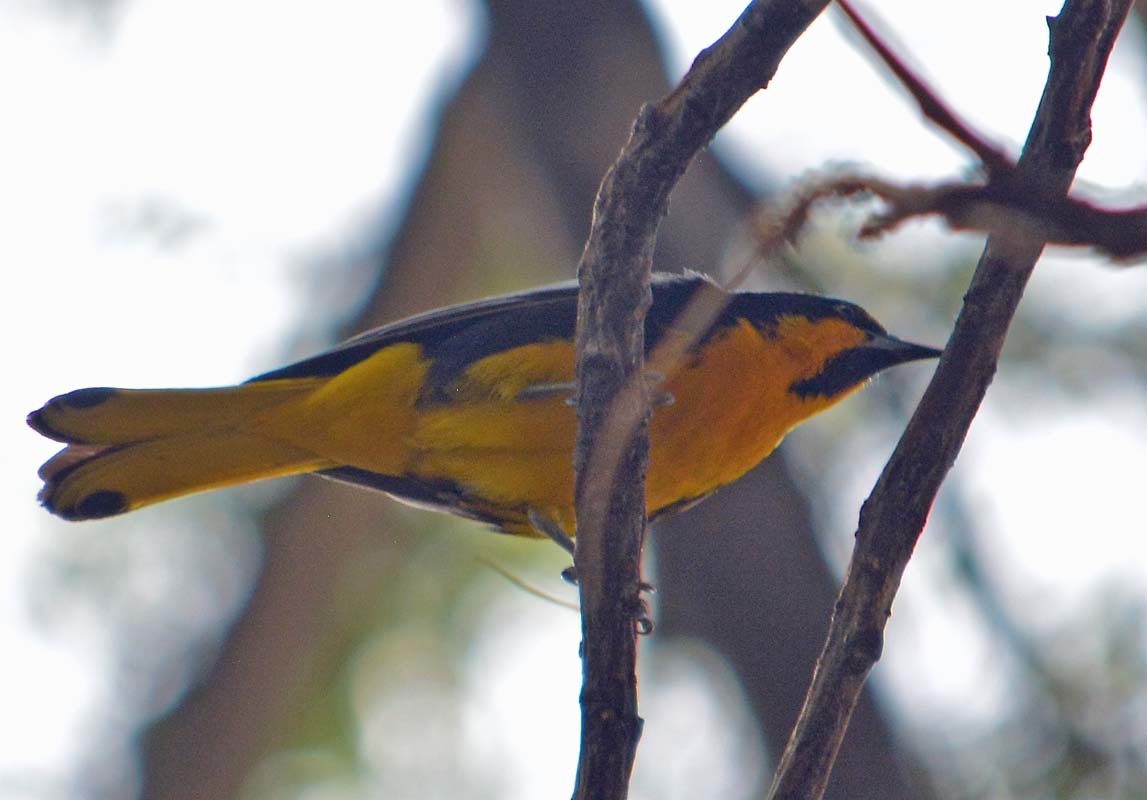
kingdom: Animalia
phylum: Chordata
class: Aves
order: Passeriformes
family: Icteridae
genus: Icterus
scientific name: Icterus abeillei
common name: Black-backed oriole
